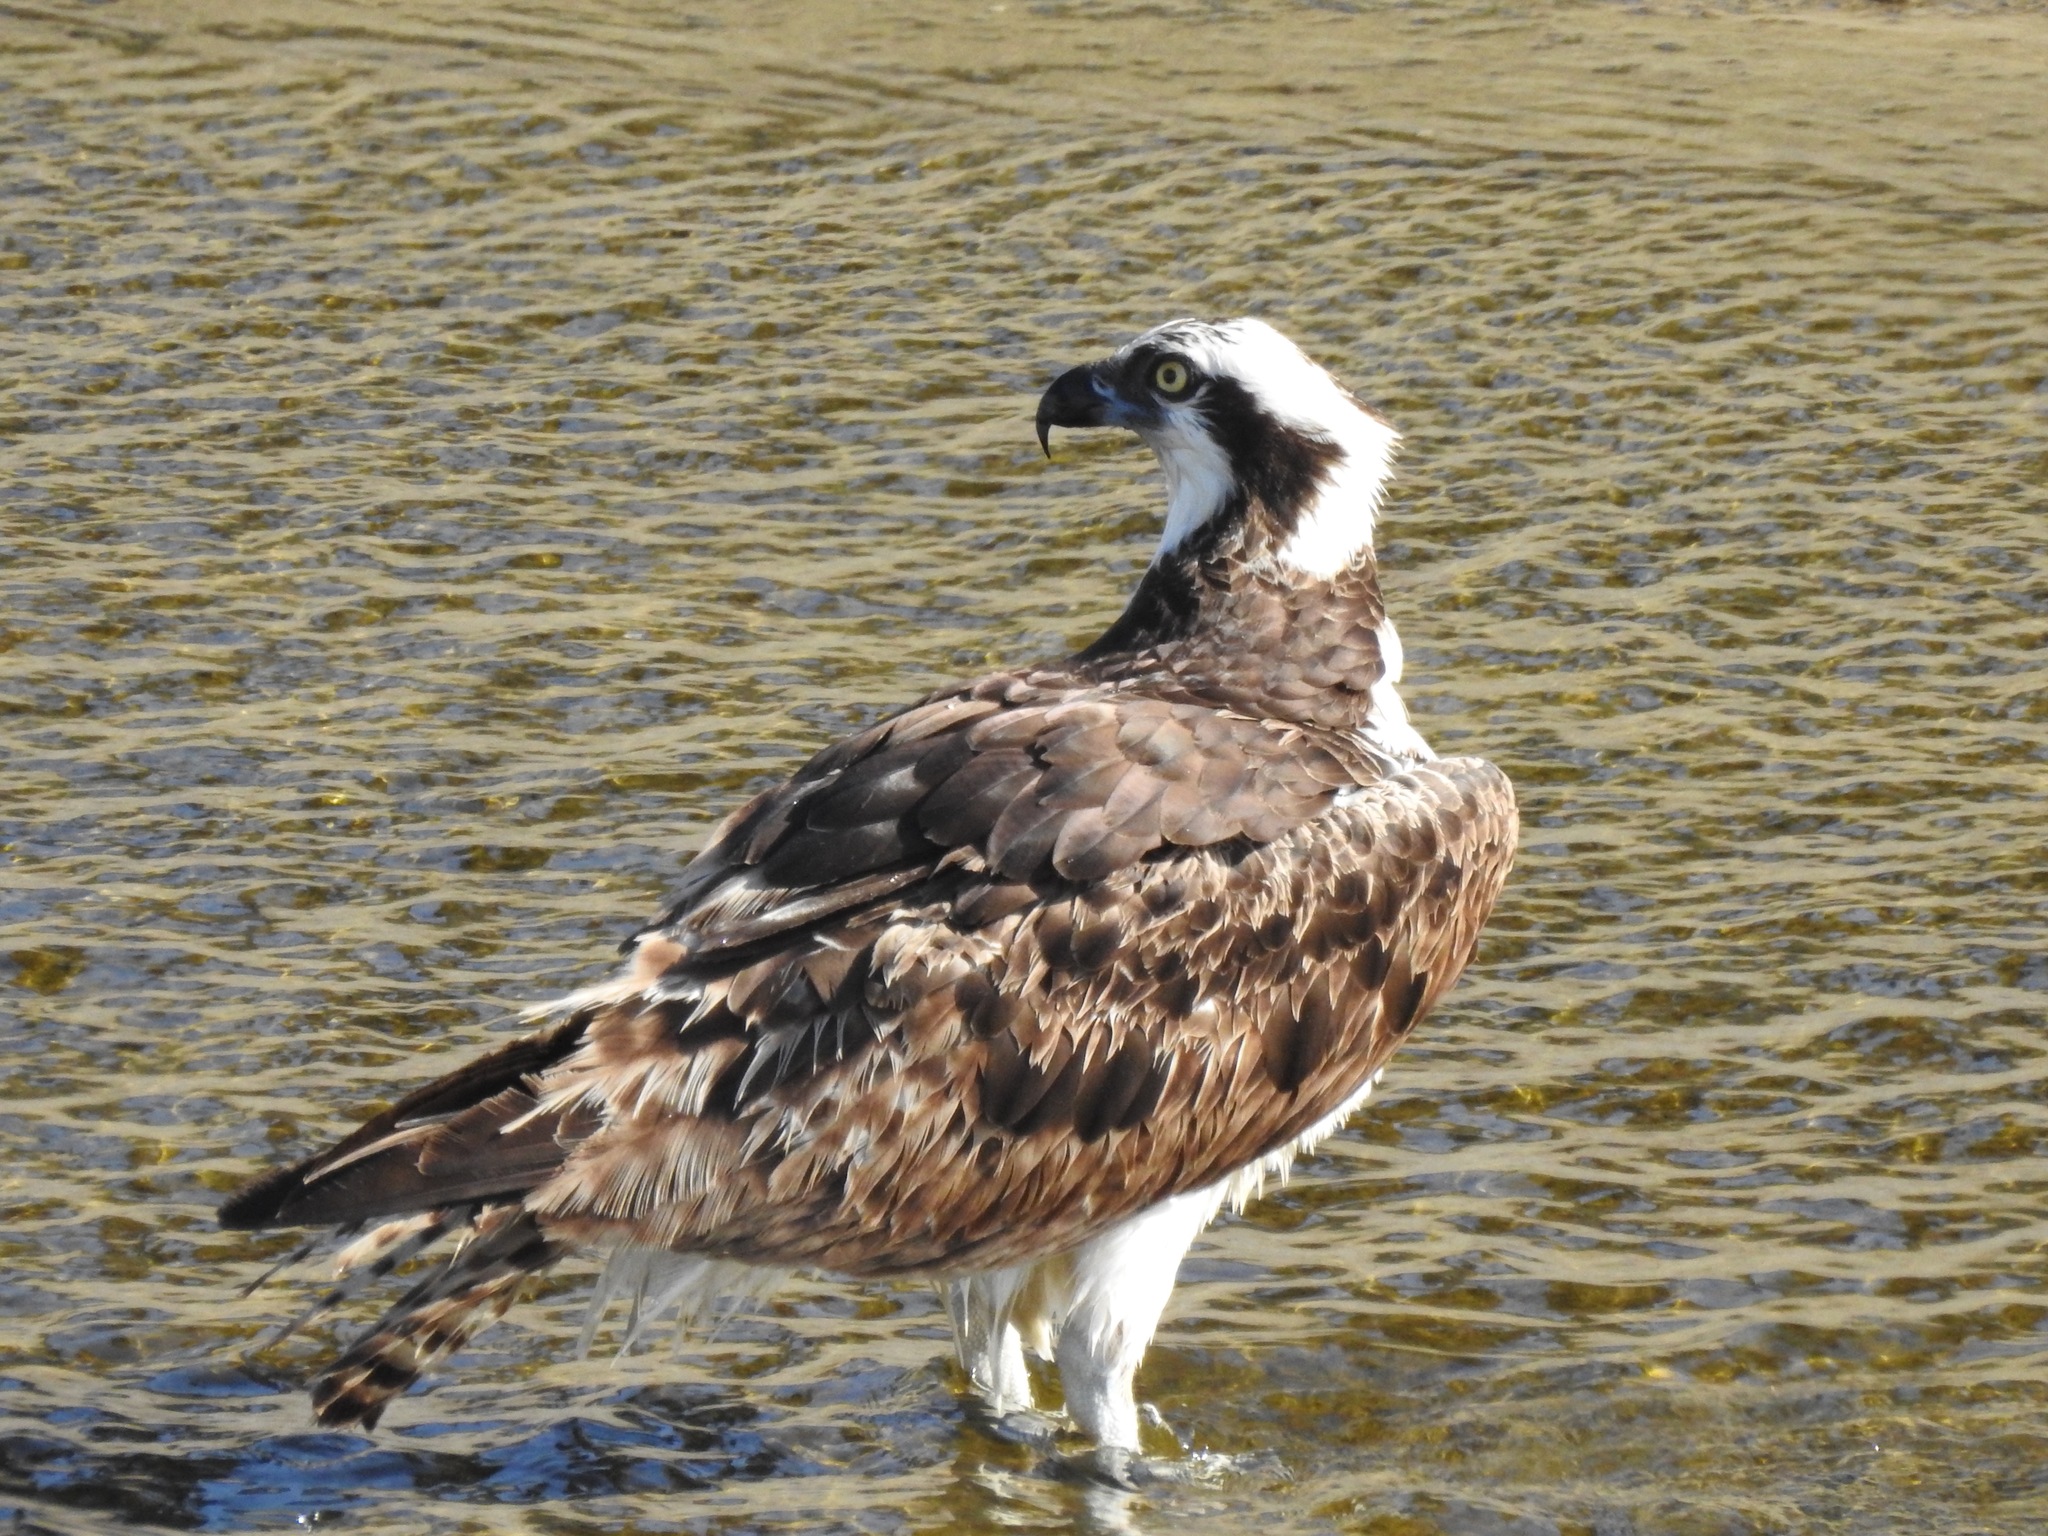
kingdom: Animalia
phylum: Chordata
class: Aves
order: Accipitriformes
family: Pandionidae
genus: Pandion
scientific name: Pandion haliaetus
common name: Osprey
